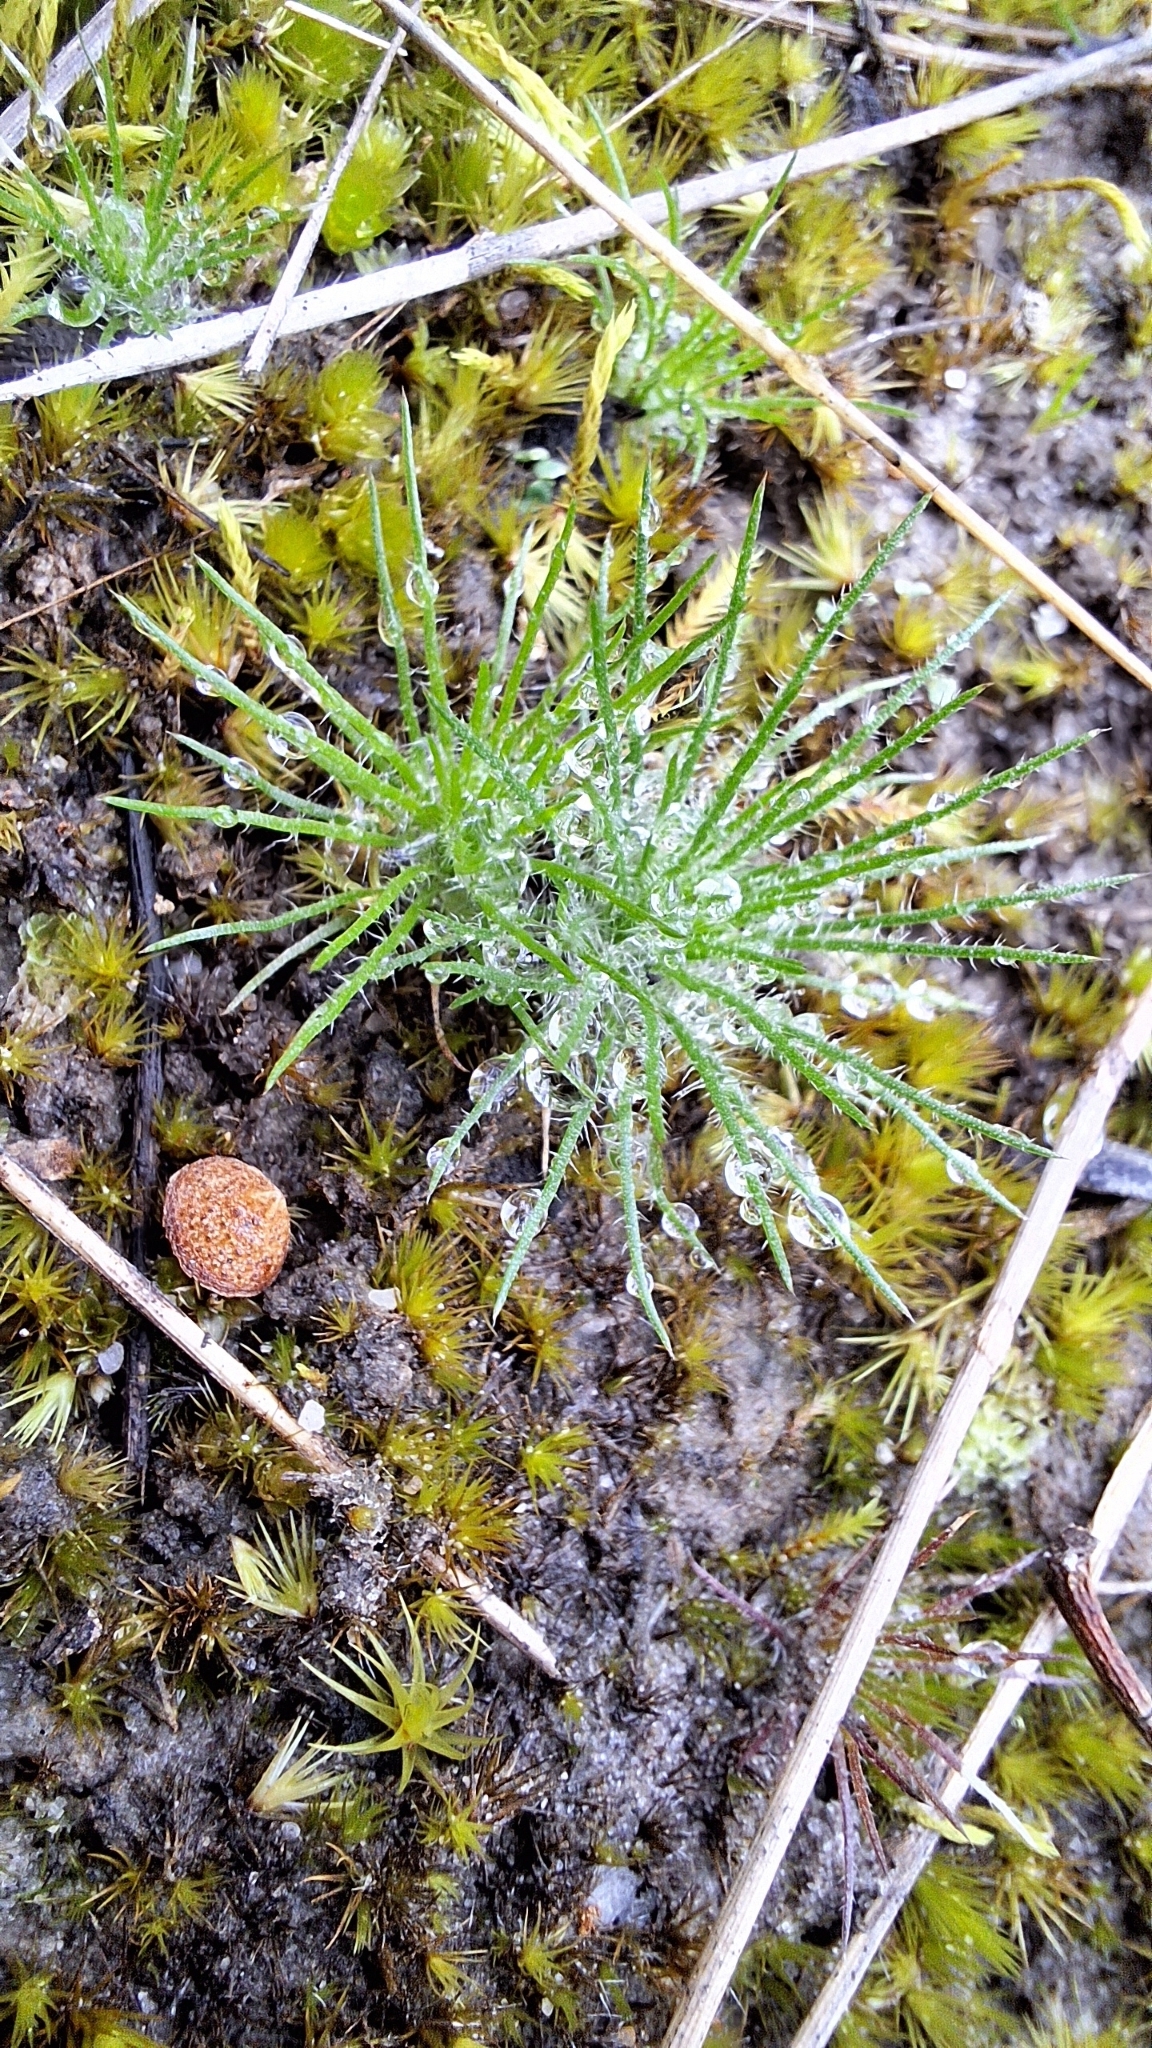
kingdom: Plantae
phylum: Tracheophyta
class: Liliopsida
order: Poales
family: Restionaceae
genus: Centrolepis
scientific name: Centrolepis strigosa
